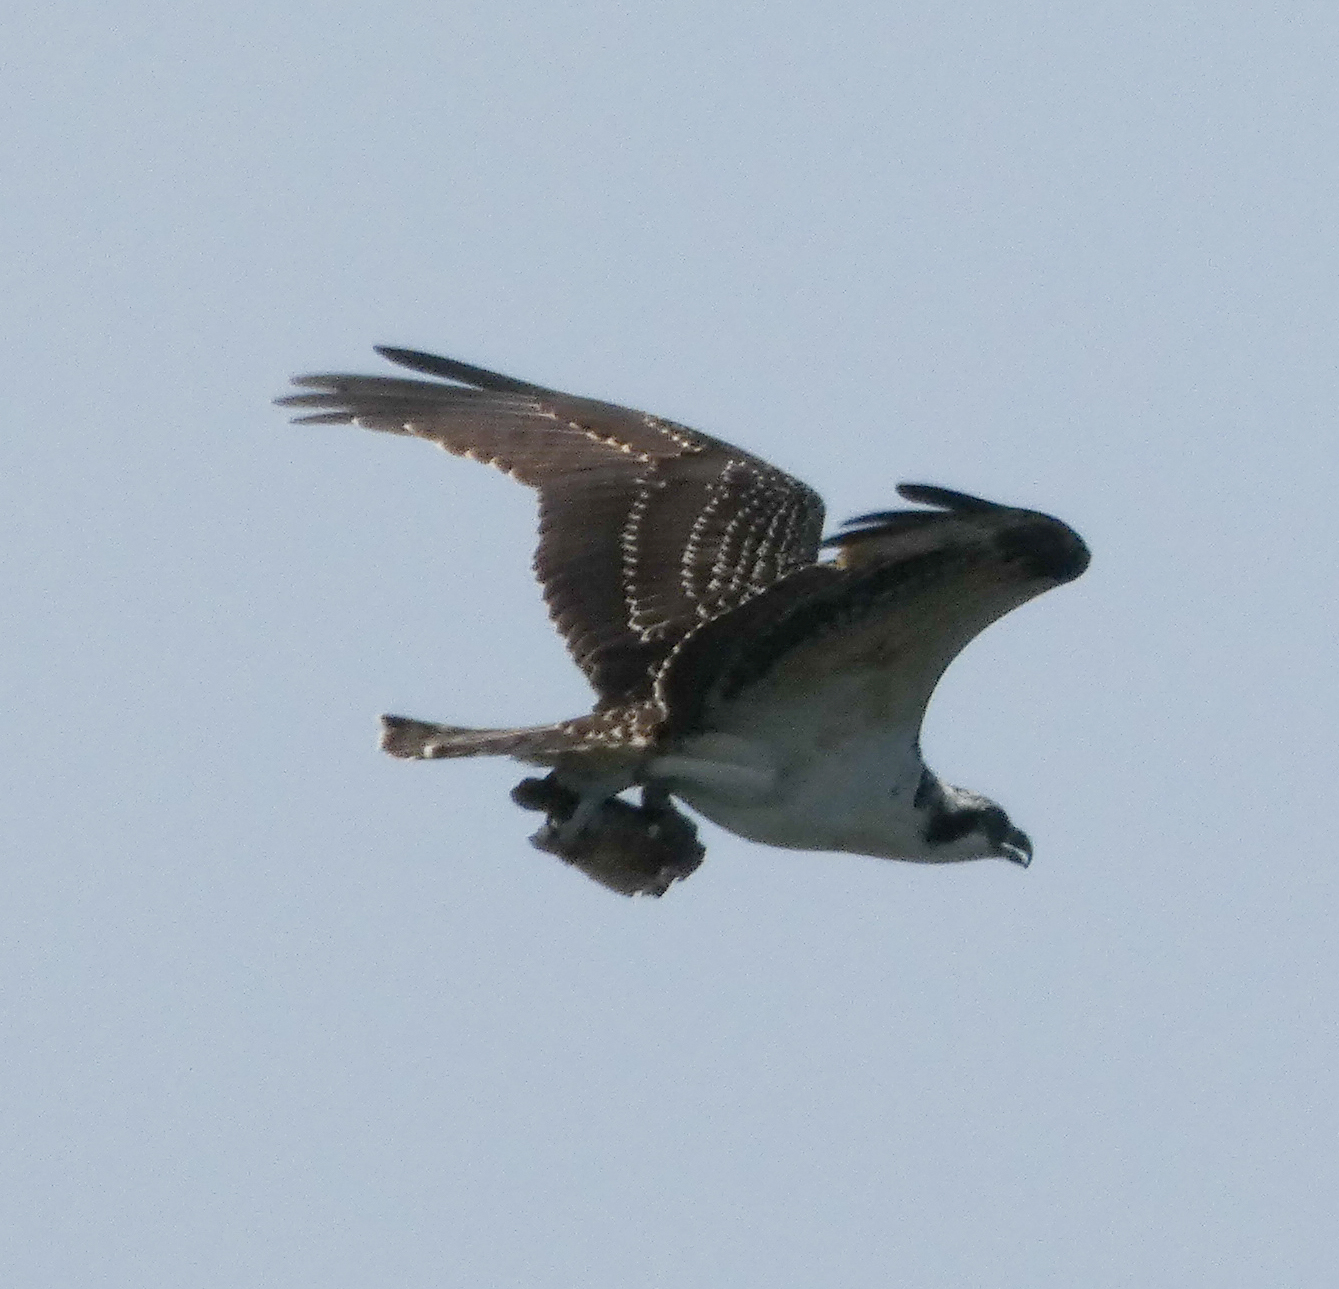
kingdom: Animalia
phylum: Chordata
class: Aves
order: Accipitriformes
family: Pandionidae
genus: Pandion
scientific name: Pandion haliaetus
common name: Osprey
